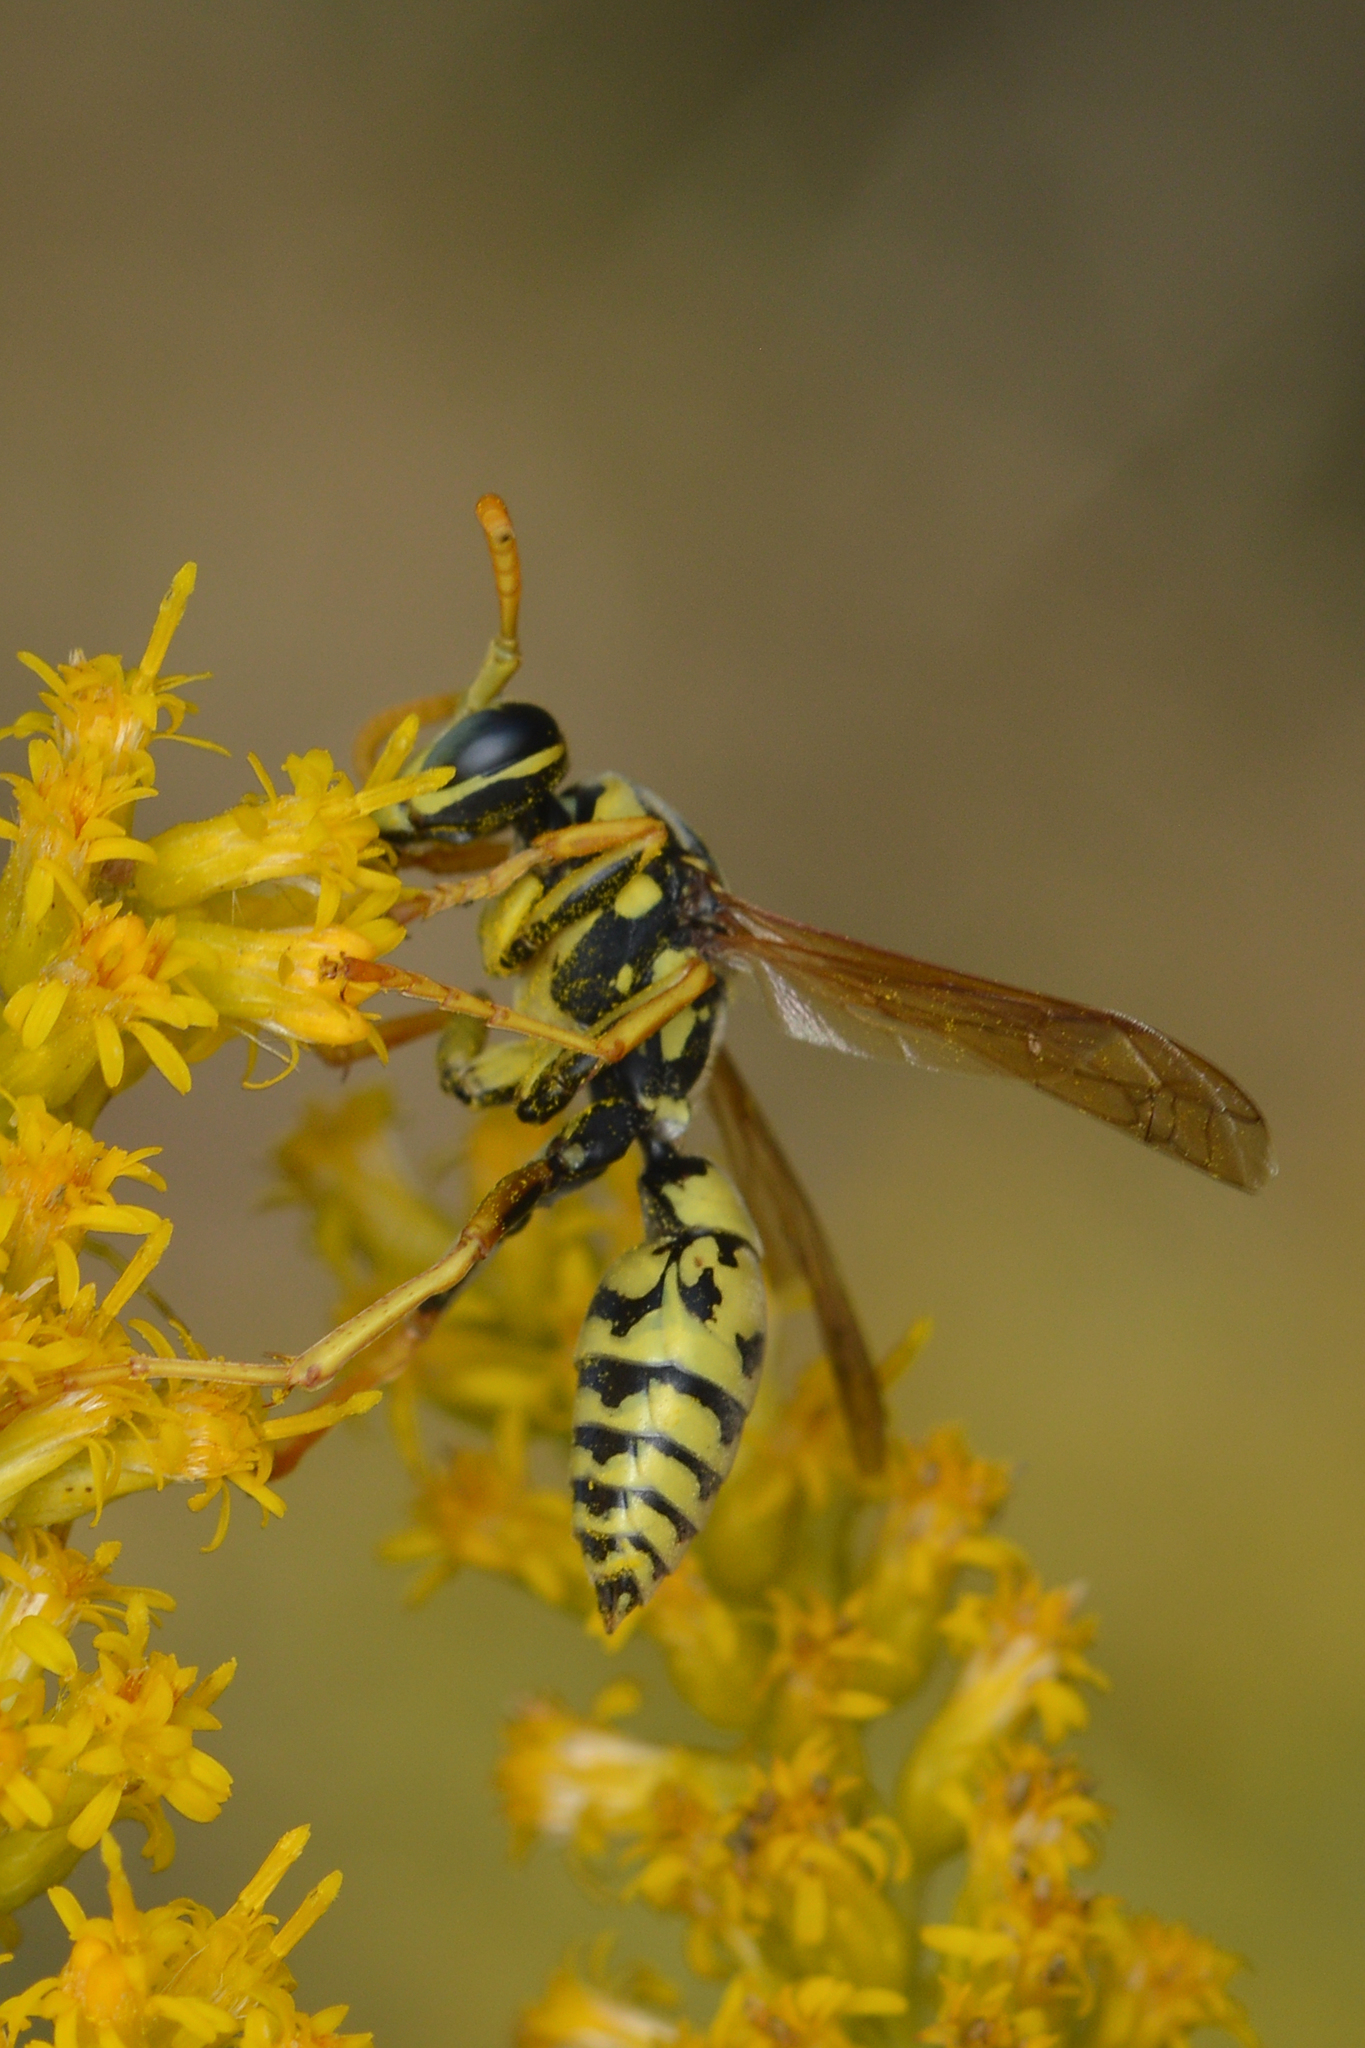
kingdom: Animalia
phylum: Arthropoda
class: Insecta
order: Hymenoptera
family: Eumenidae
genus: Polistes
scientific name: Polistes dominula
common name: Paper wasp
